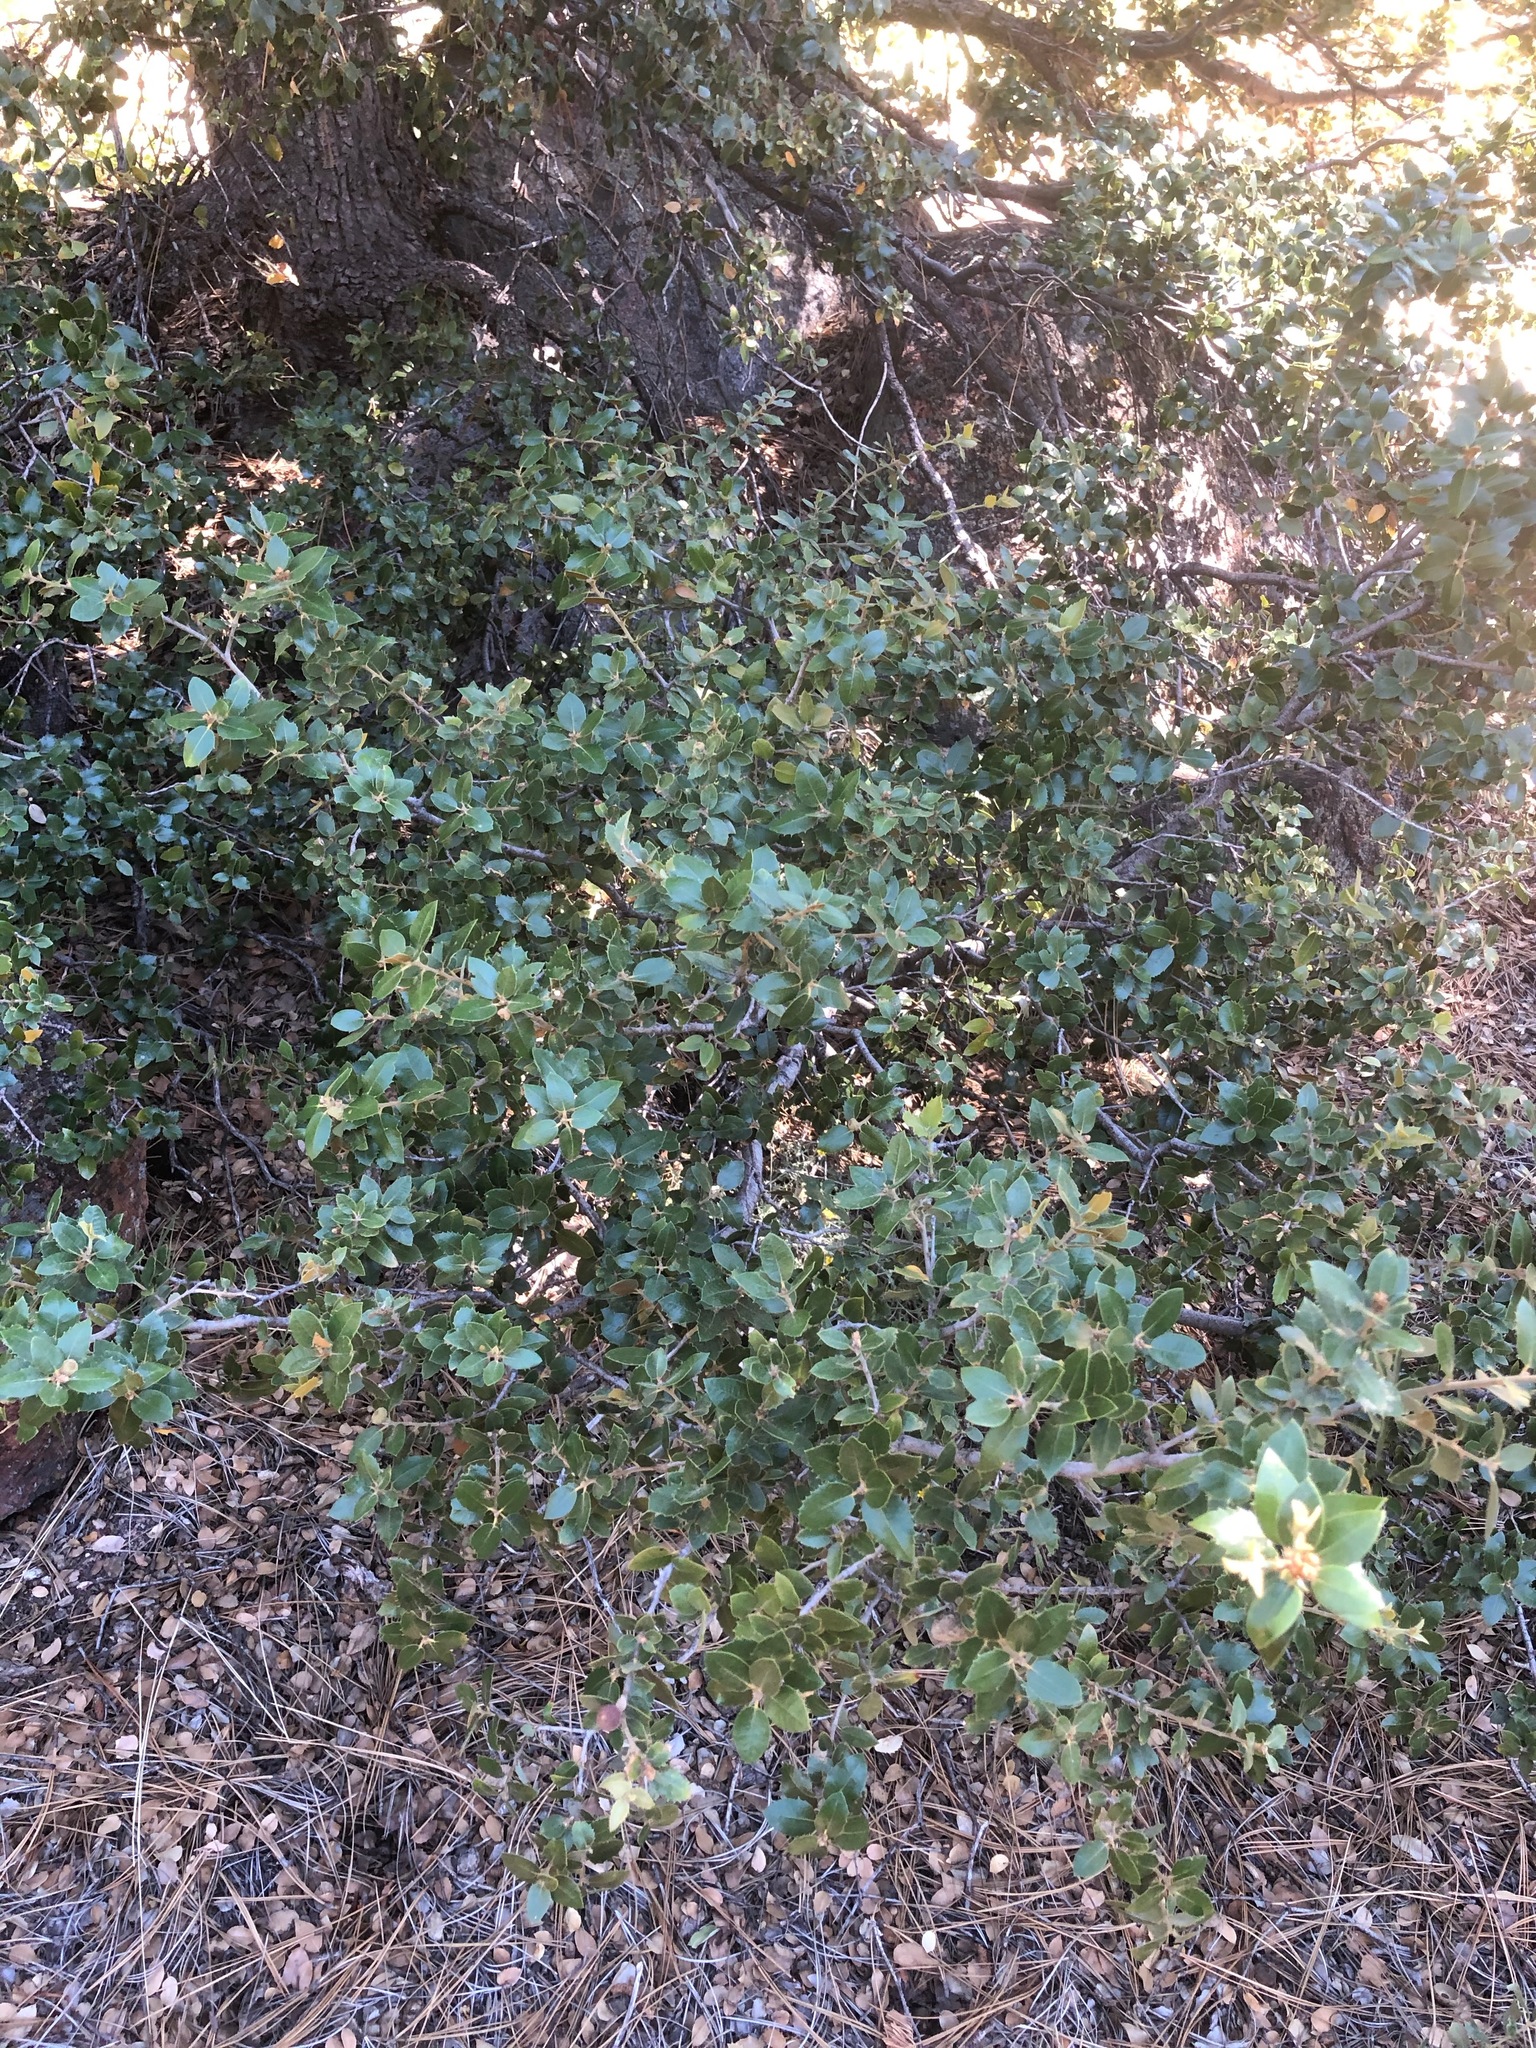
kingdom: Plantae
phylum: Tracheophyta
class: Magnoliopsida
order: Fagales
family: Fagaceae
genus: Quercus
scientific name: Quercus chrysolepis
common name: Canyon live oak
